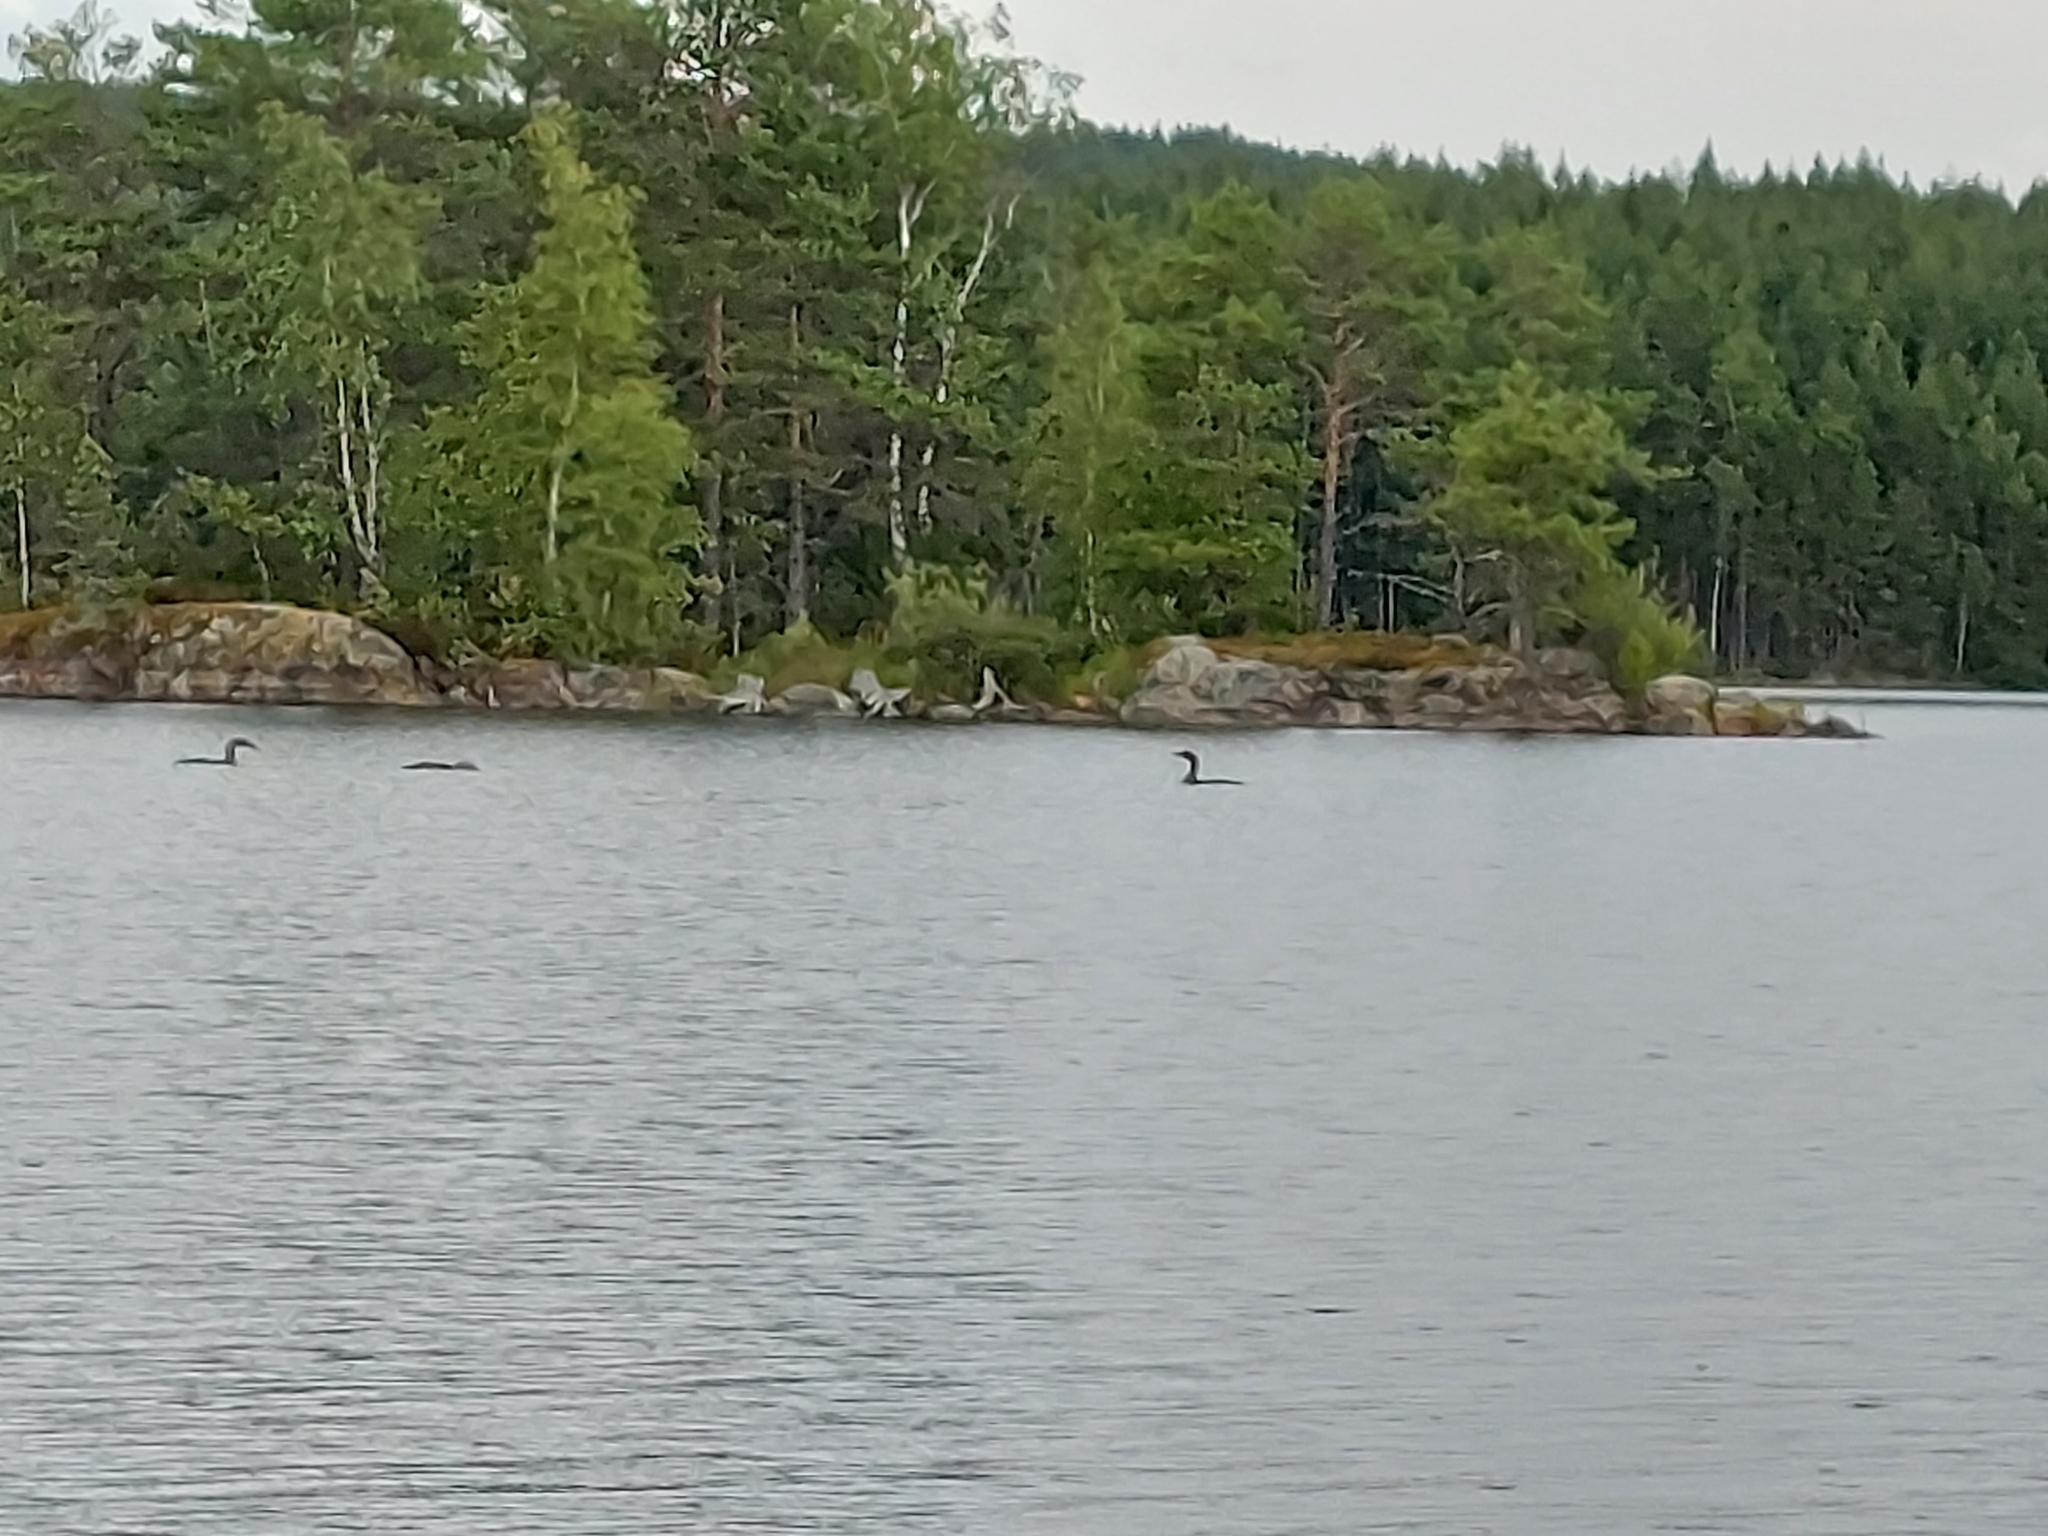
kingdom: Animalia
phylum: Chordata
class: Aves
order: Gaviiformes
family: Gaviidae
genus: Gavia
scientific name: Gavia arctica
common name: Black-throated loon
